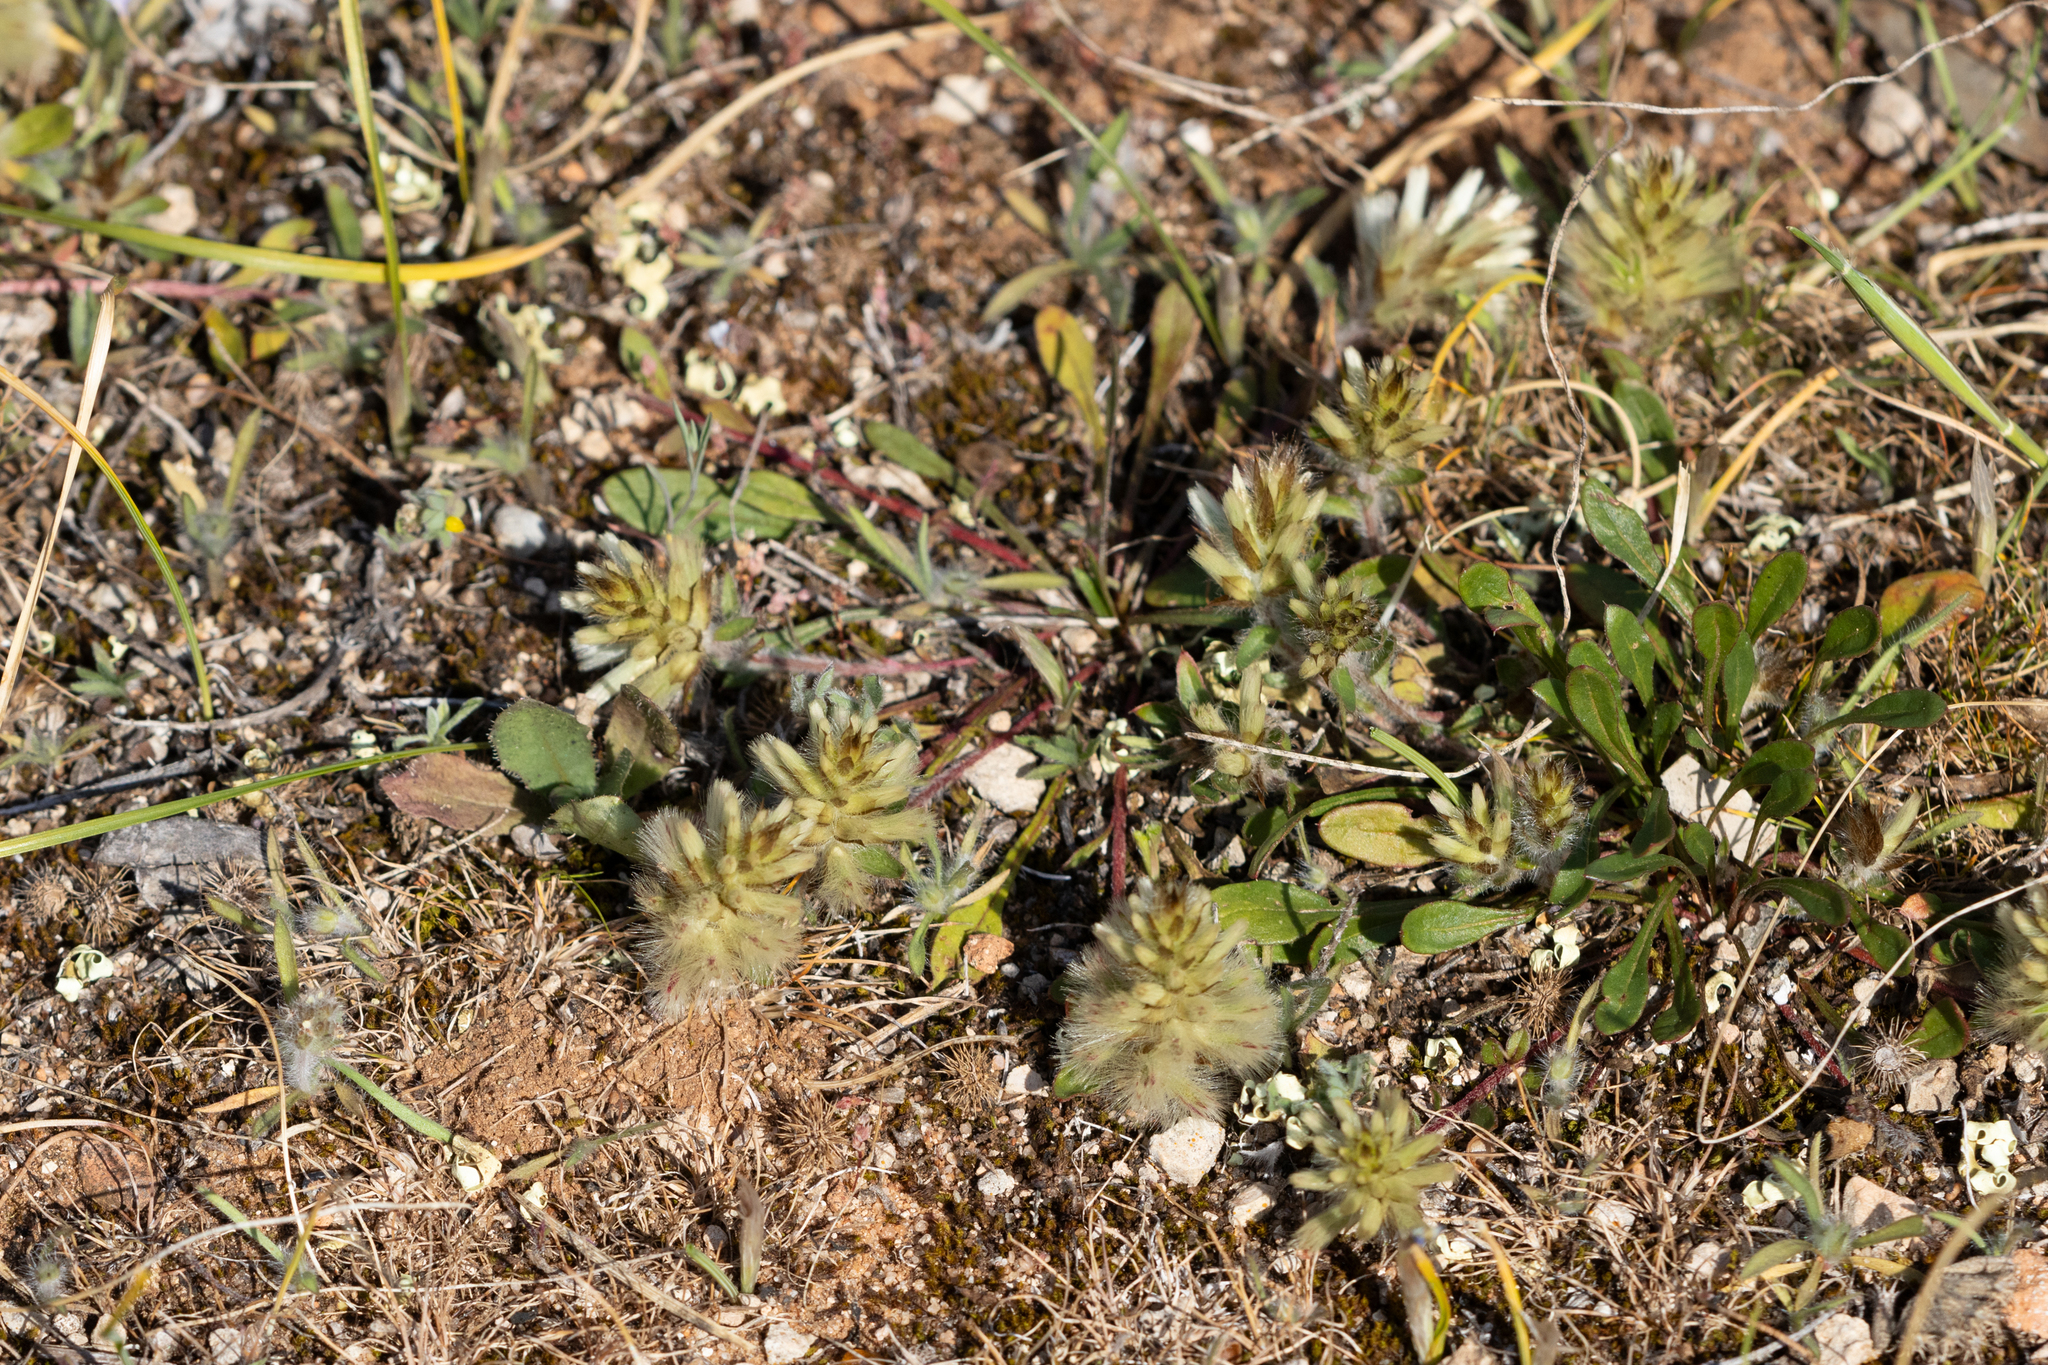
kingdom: Plantae
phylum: Tracheophyta
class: Magnoliopsida
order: Caryophyllales
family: Amaranthaceae
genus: Ptilotus
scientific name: Ptilotus spathulatus
